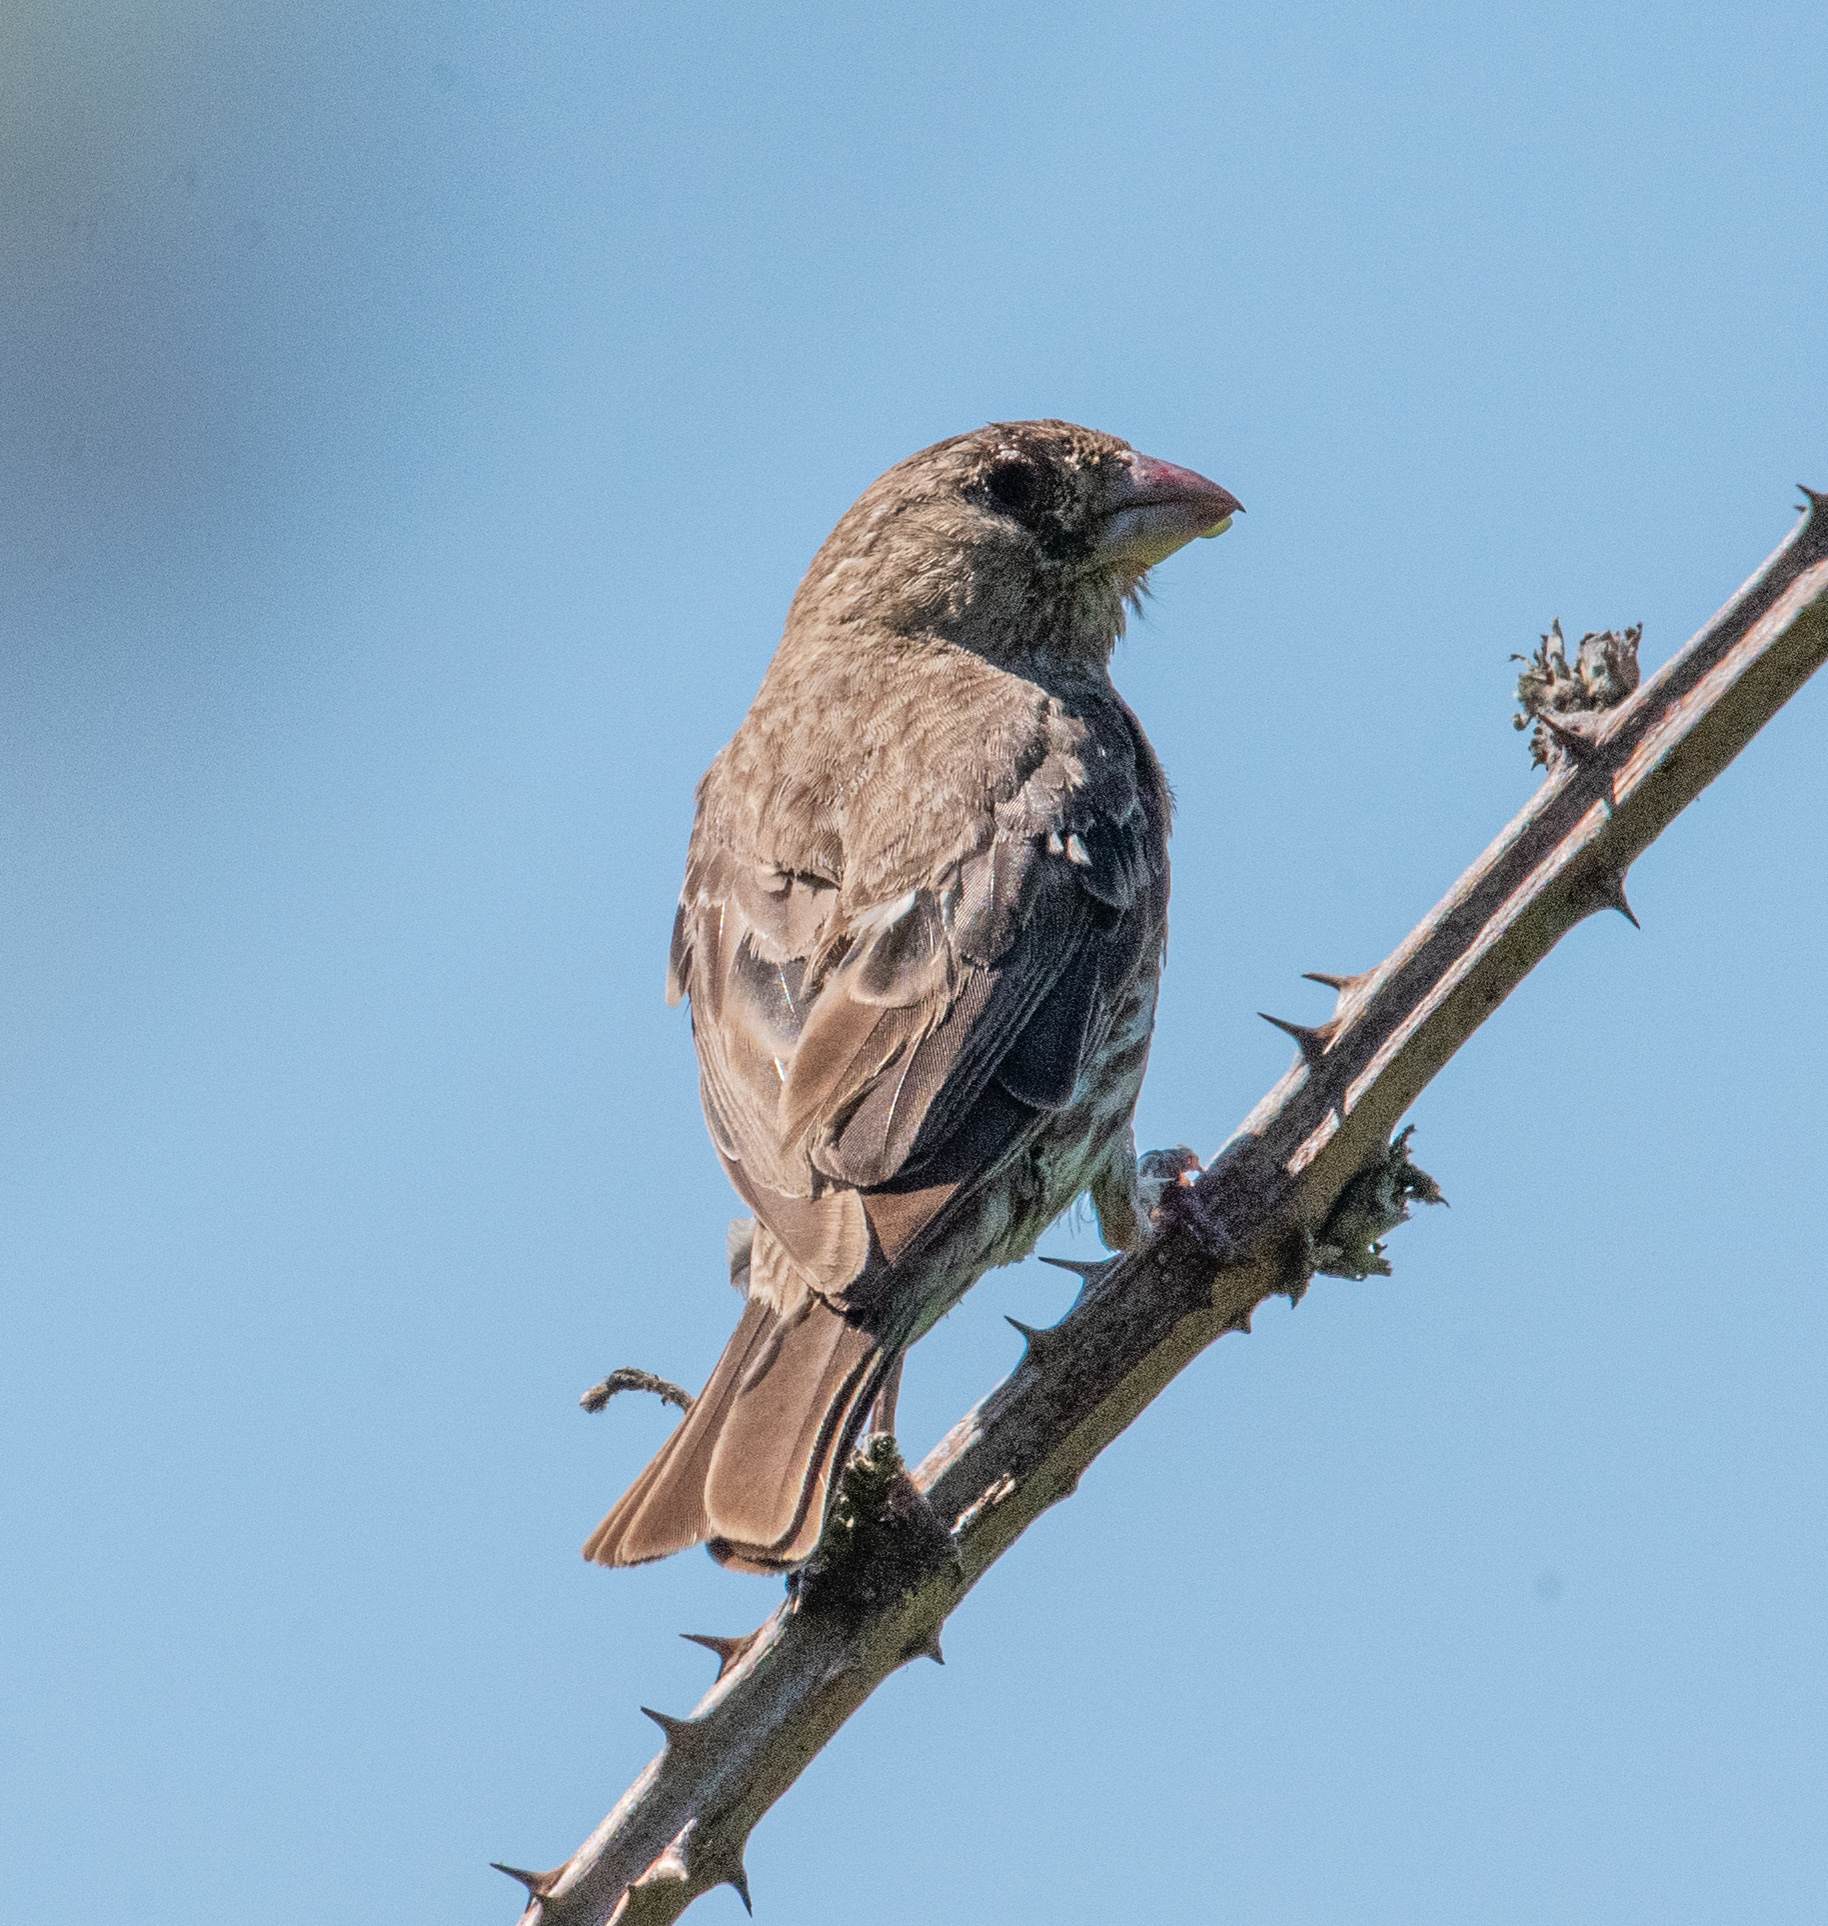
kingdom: Animalia
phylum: Chordata
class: Aves
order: Passeriformes
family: Fringillidae
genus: Haemorhous
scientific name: Haemorhous mexicanus
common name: House finch
